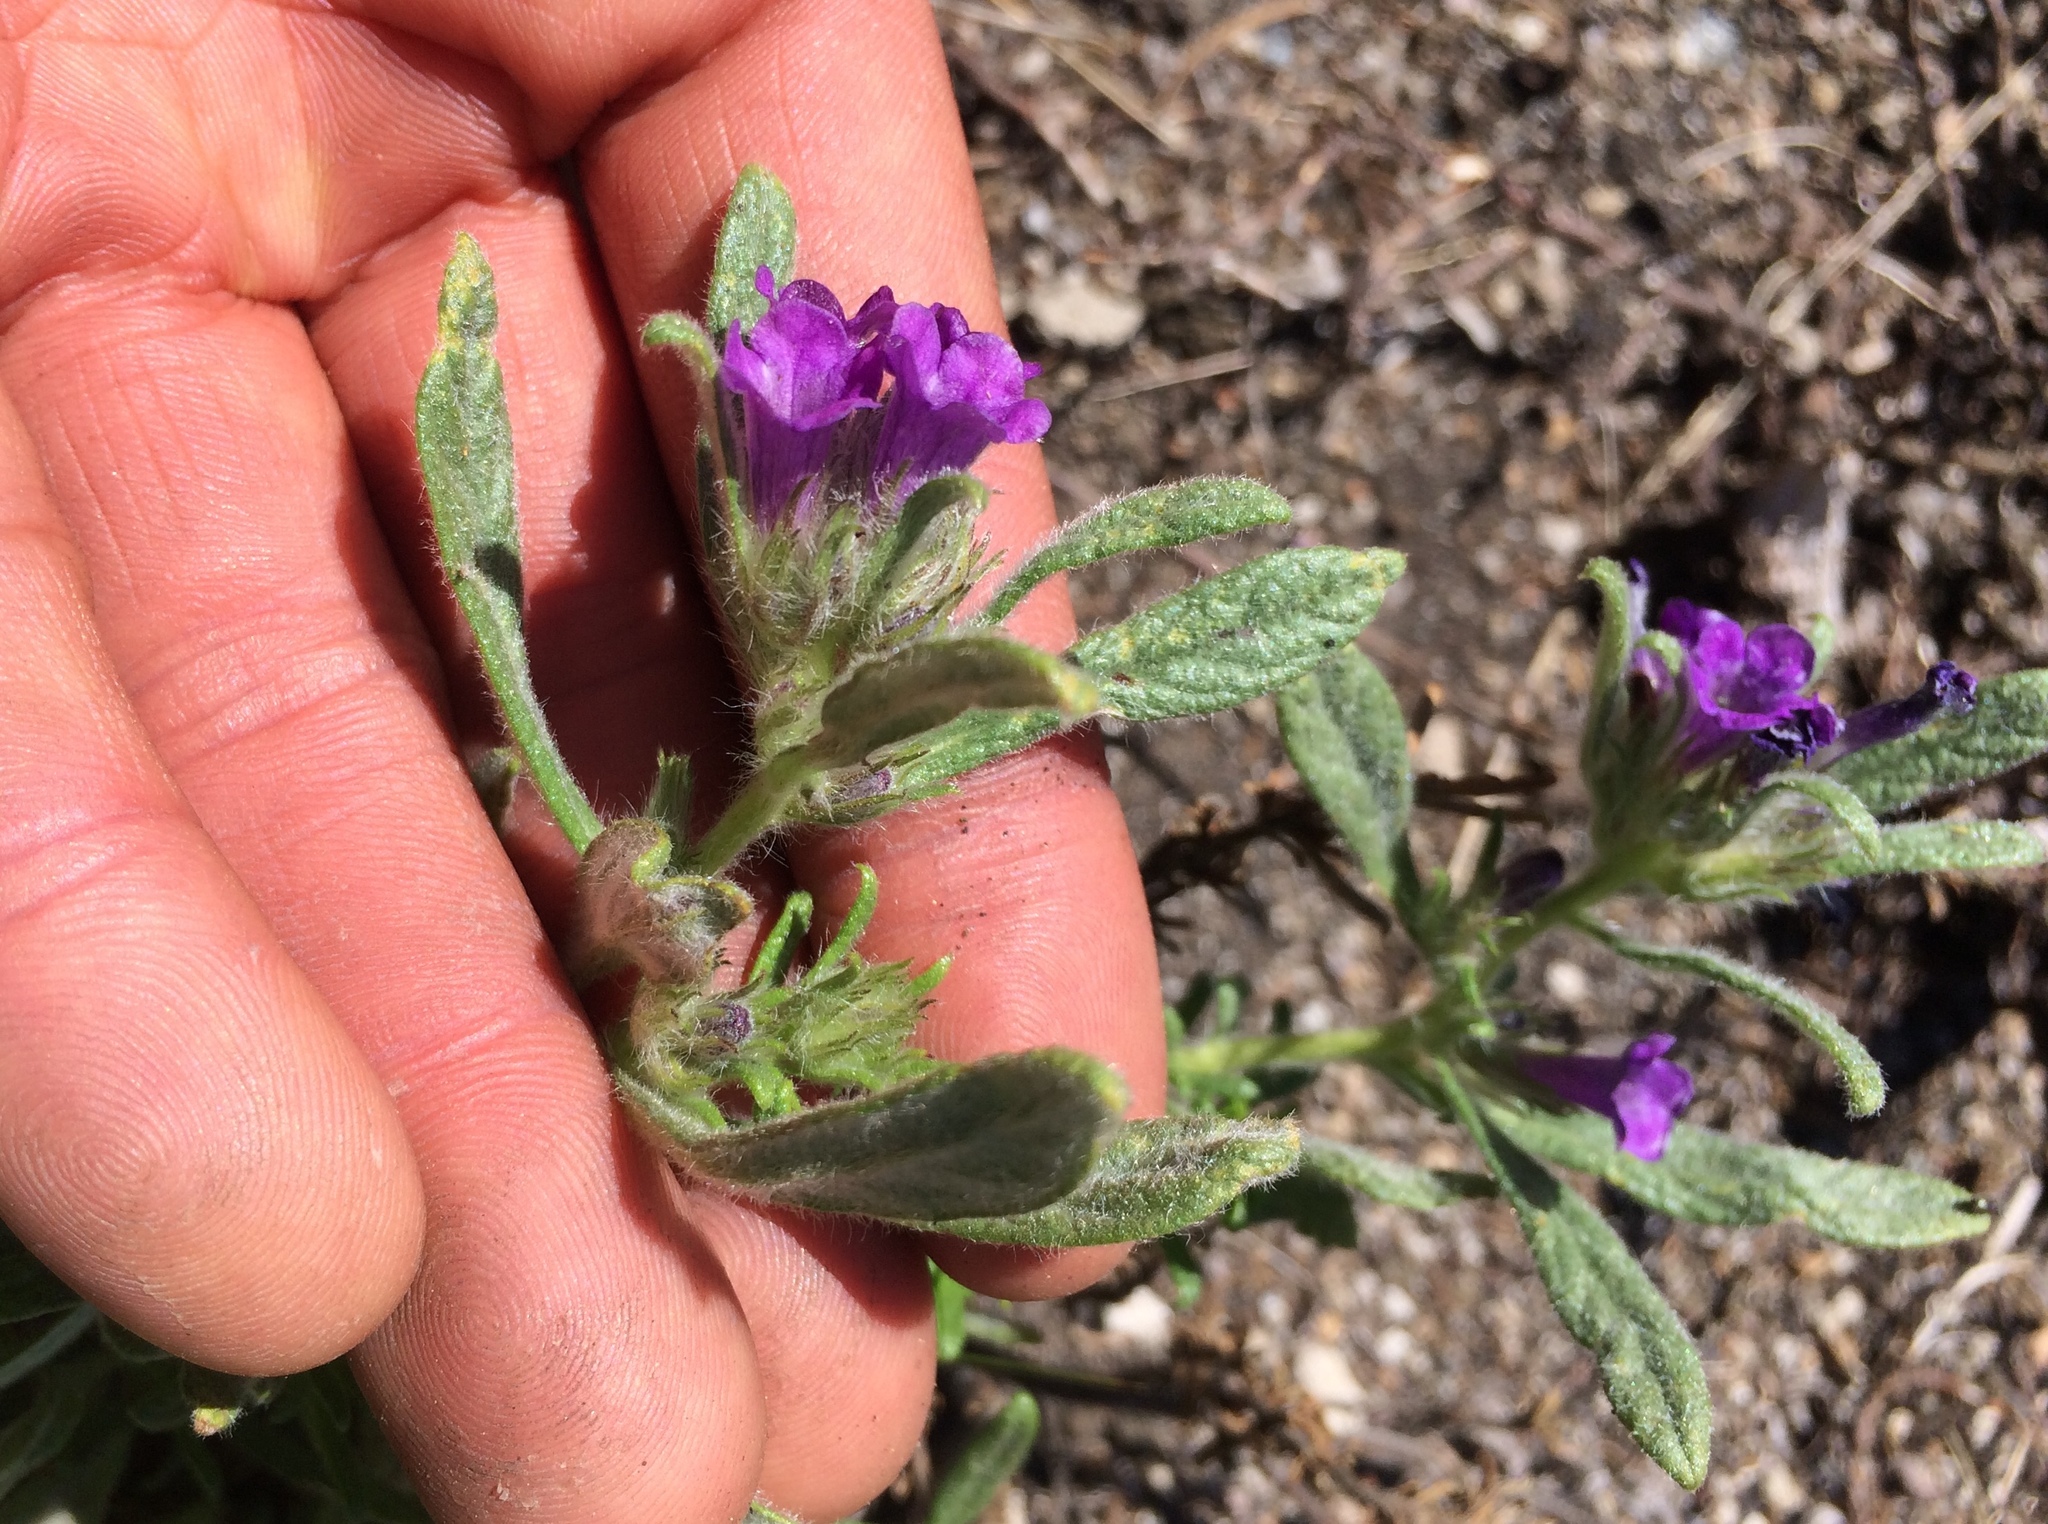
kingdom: Plantae
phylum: Tracheophyta
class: Magnoliopsida
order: Boraginales
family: Namaceae
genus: Nama
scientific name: Nama lobbii
